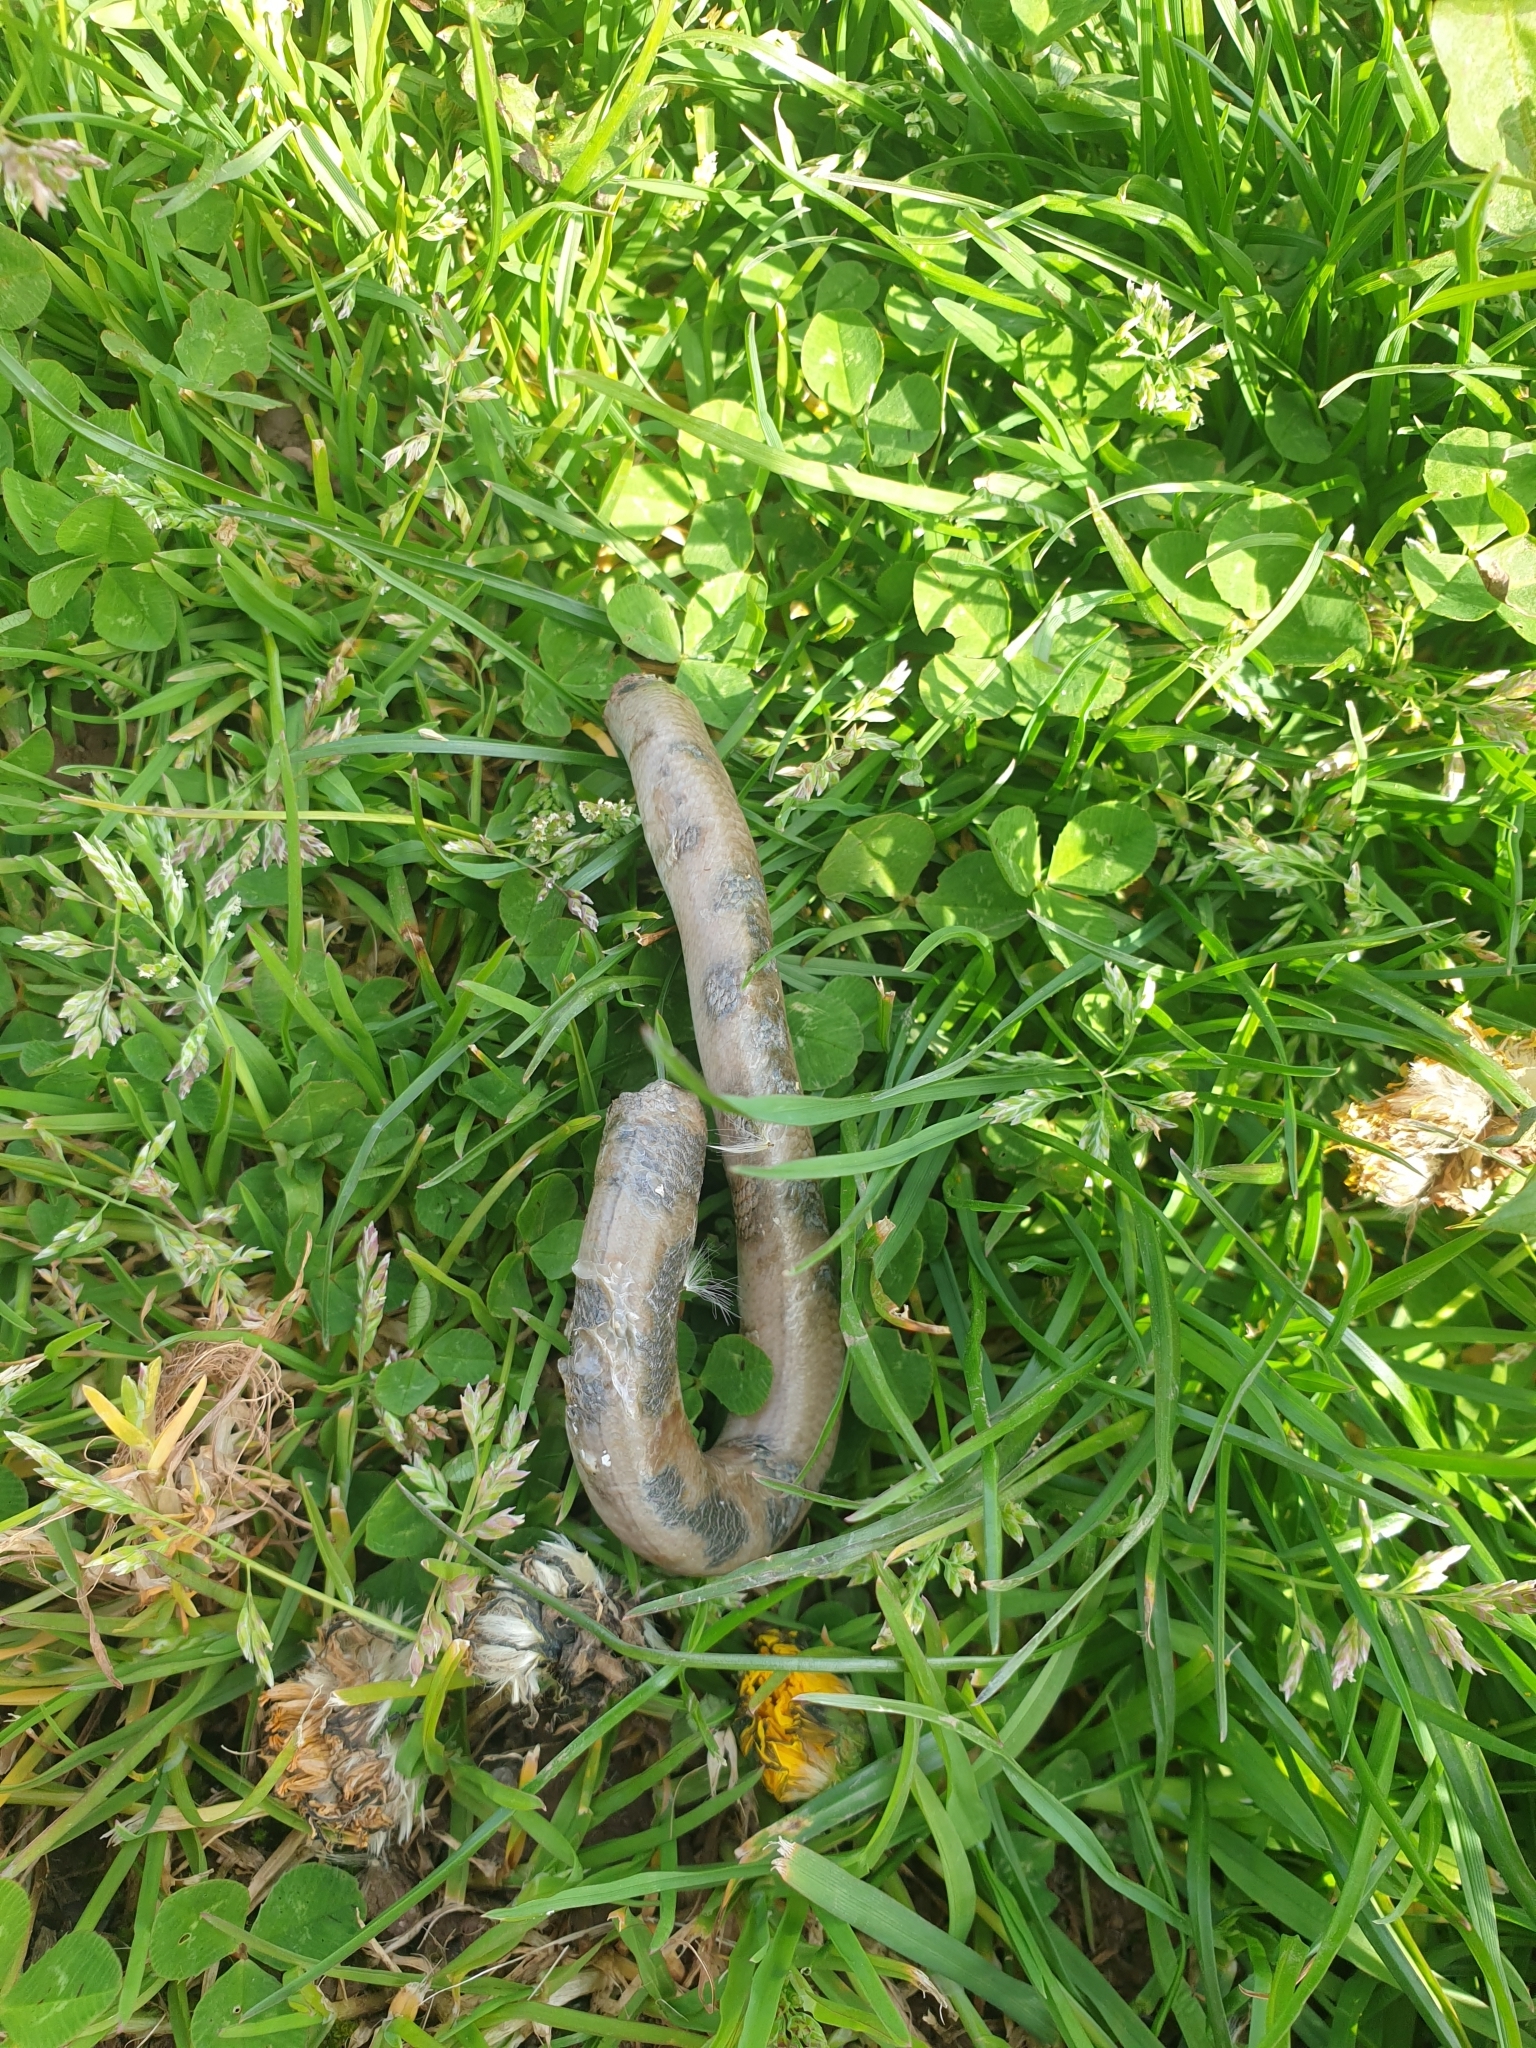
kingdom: Animalia
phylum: Chordata
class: Squamata
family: Anguidae
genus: Anguis
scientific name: Anguis fragilis
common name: Slow worm
